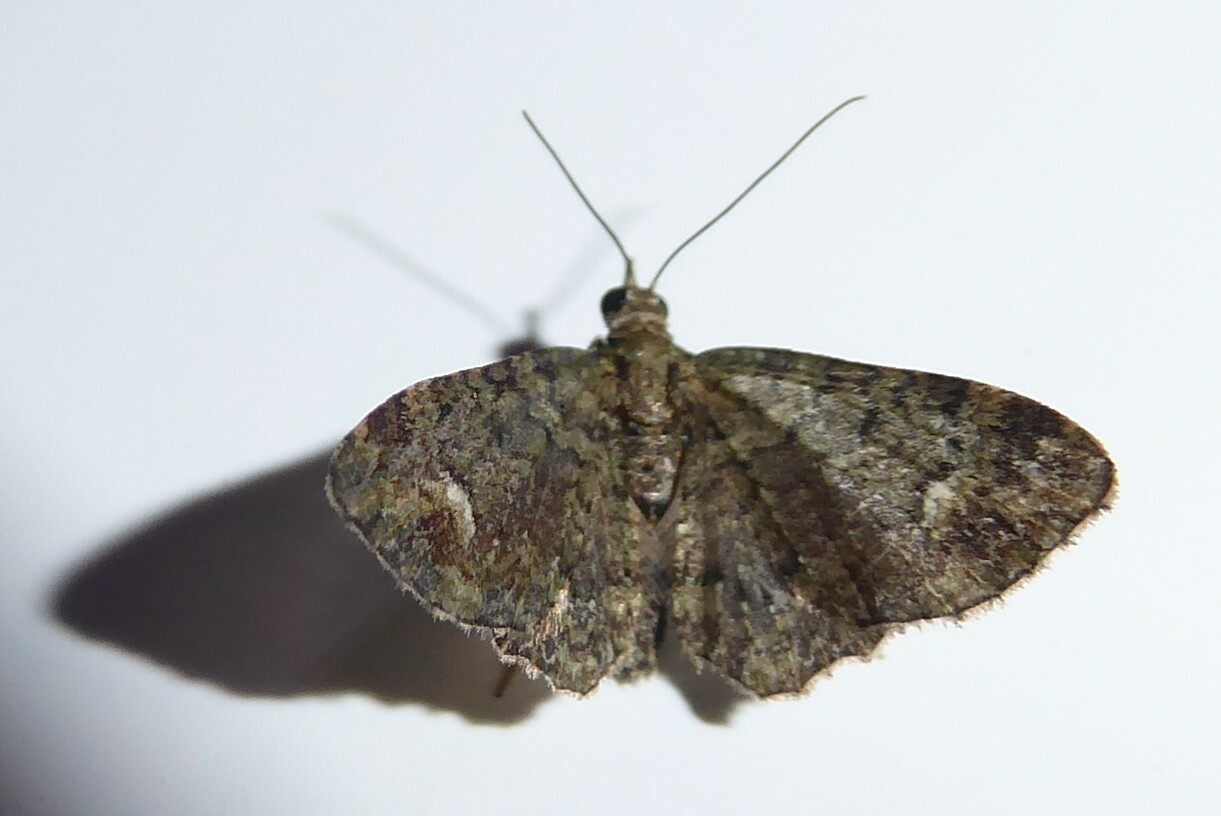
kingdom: Animalia
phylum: Arthropoda
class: Insecta
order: Lepidoptera
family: Geometridae
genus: Pasiphilodes
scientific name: Pasiphilodes testulata
